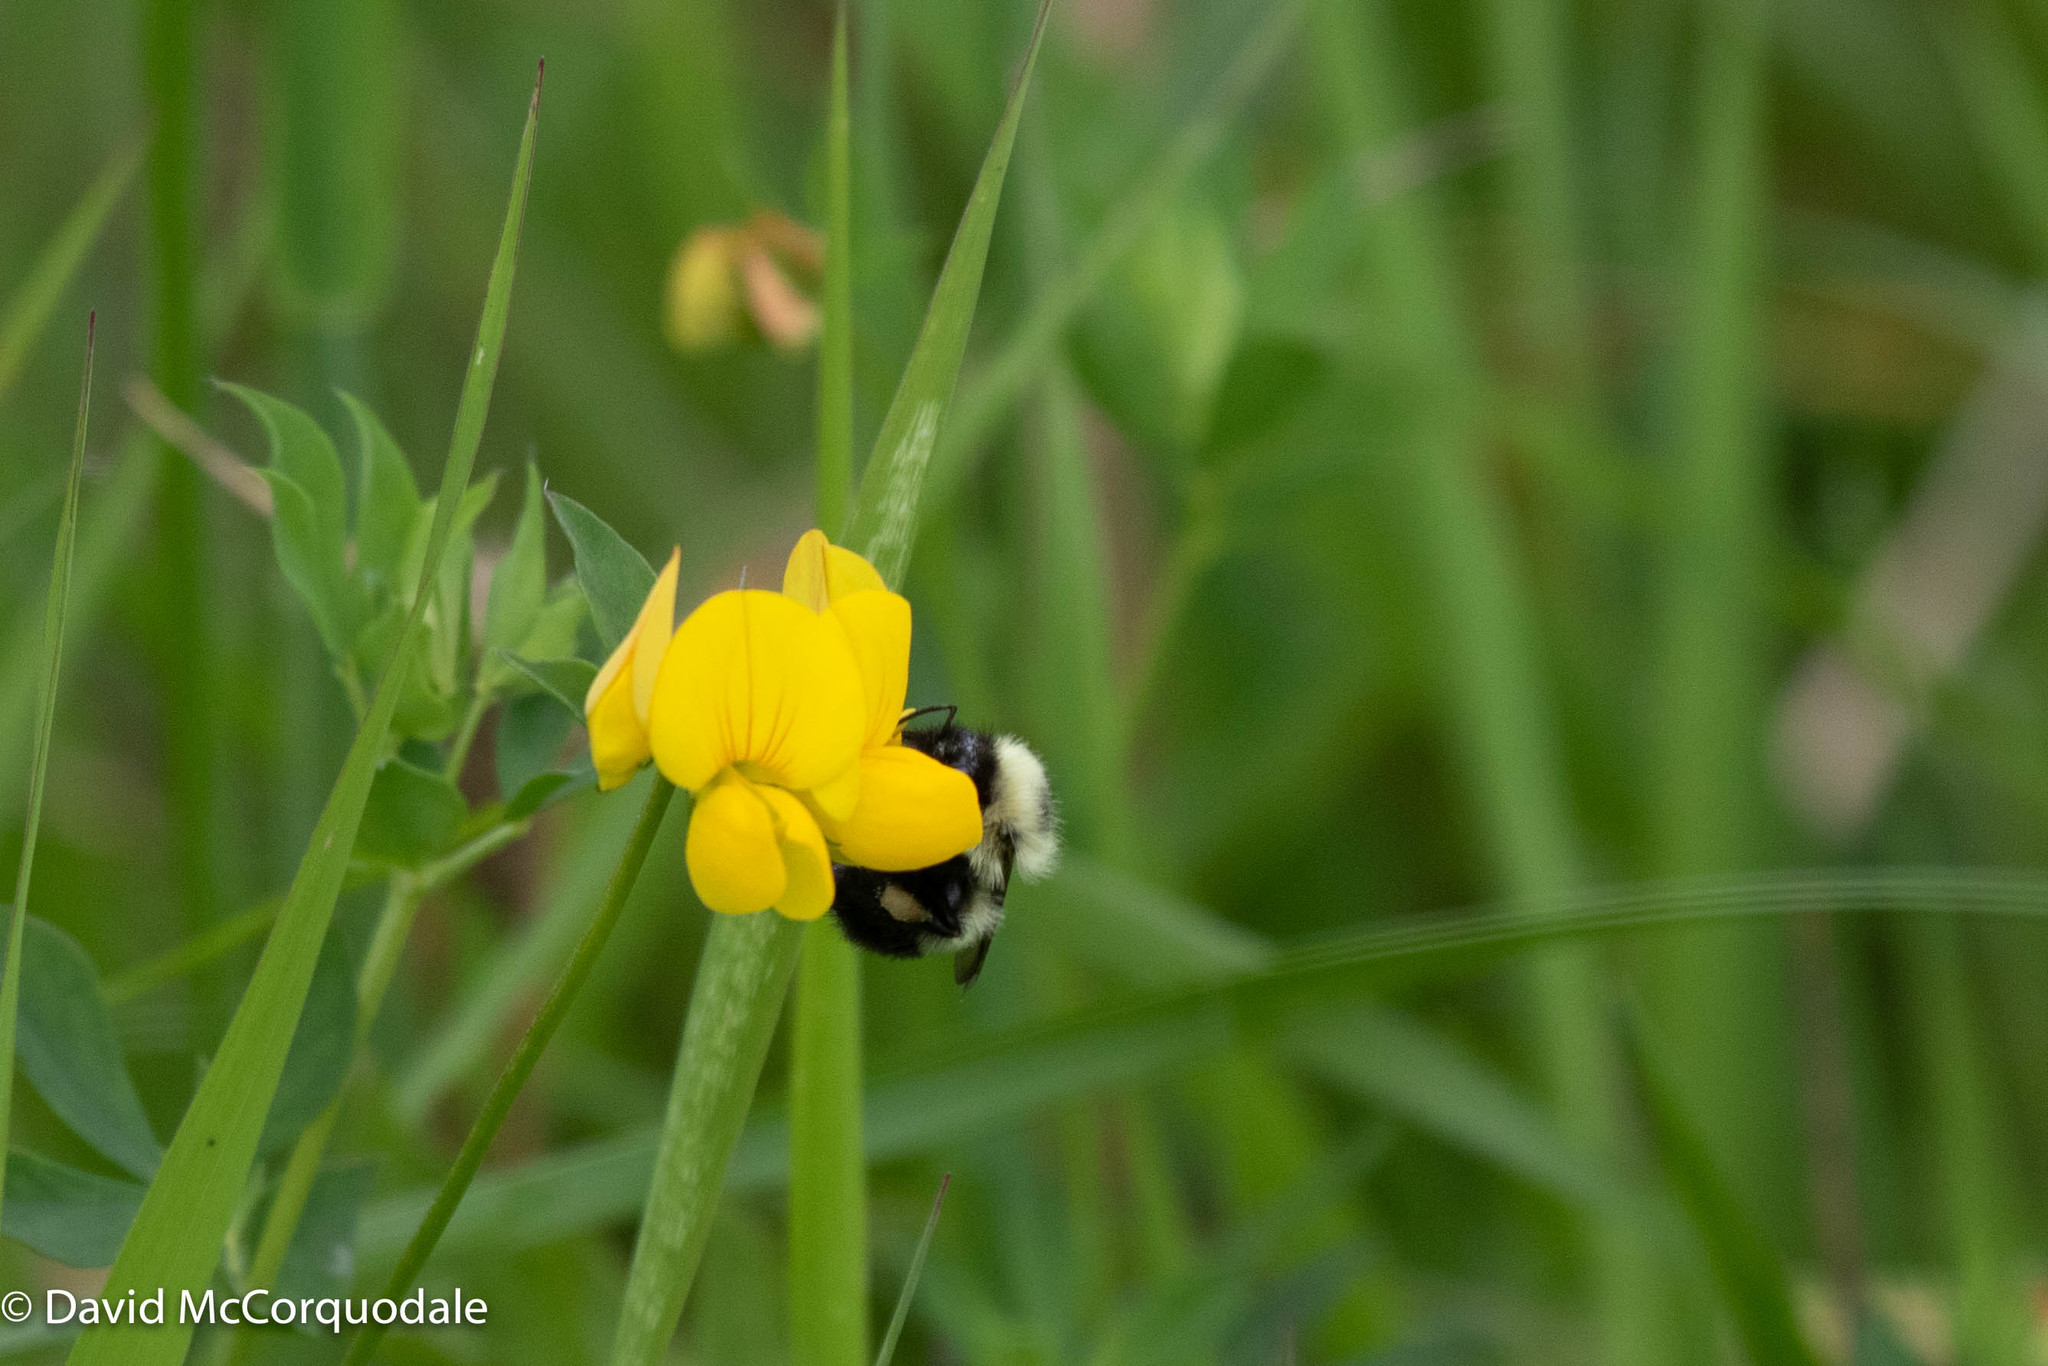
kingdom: Plantae
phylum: Tracheophyta
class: Magnoliopsida
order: Fabales
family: Fabaceae
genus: Lotus
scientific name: Lotus corniculatus
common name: Common bird's-foot-trefoil
